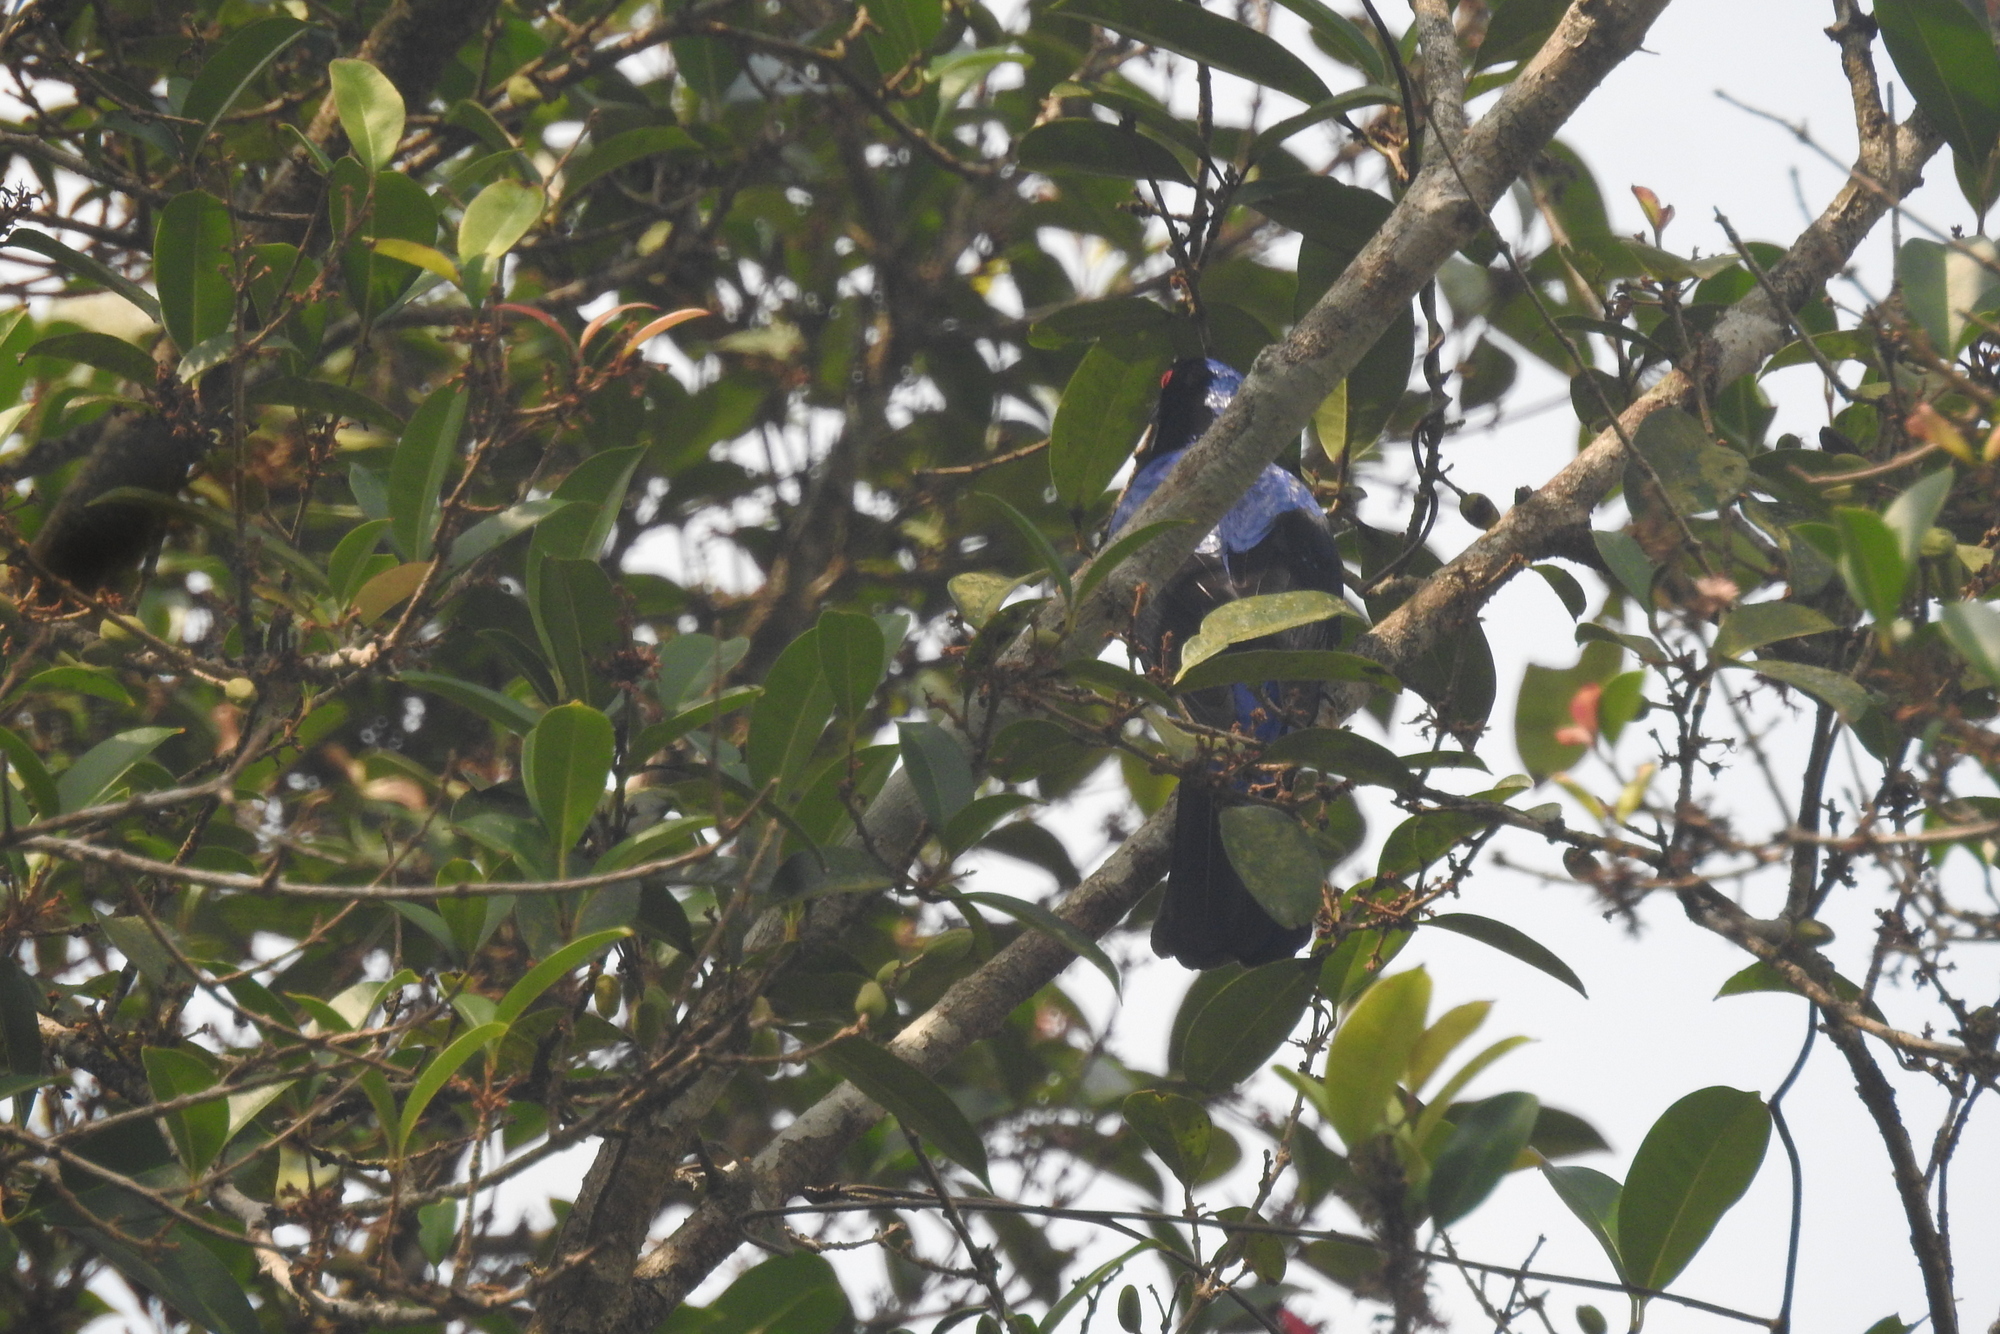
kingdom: Animalia
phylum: Chordata
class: Aves
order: Passeriformes
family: Irenidae
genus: Irena
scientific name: Irena puella
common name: Asian fairy-bluebird
